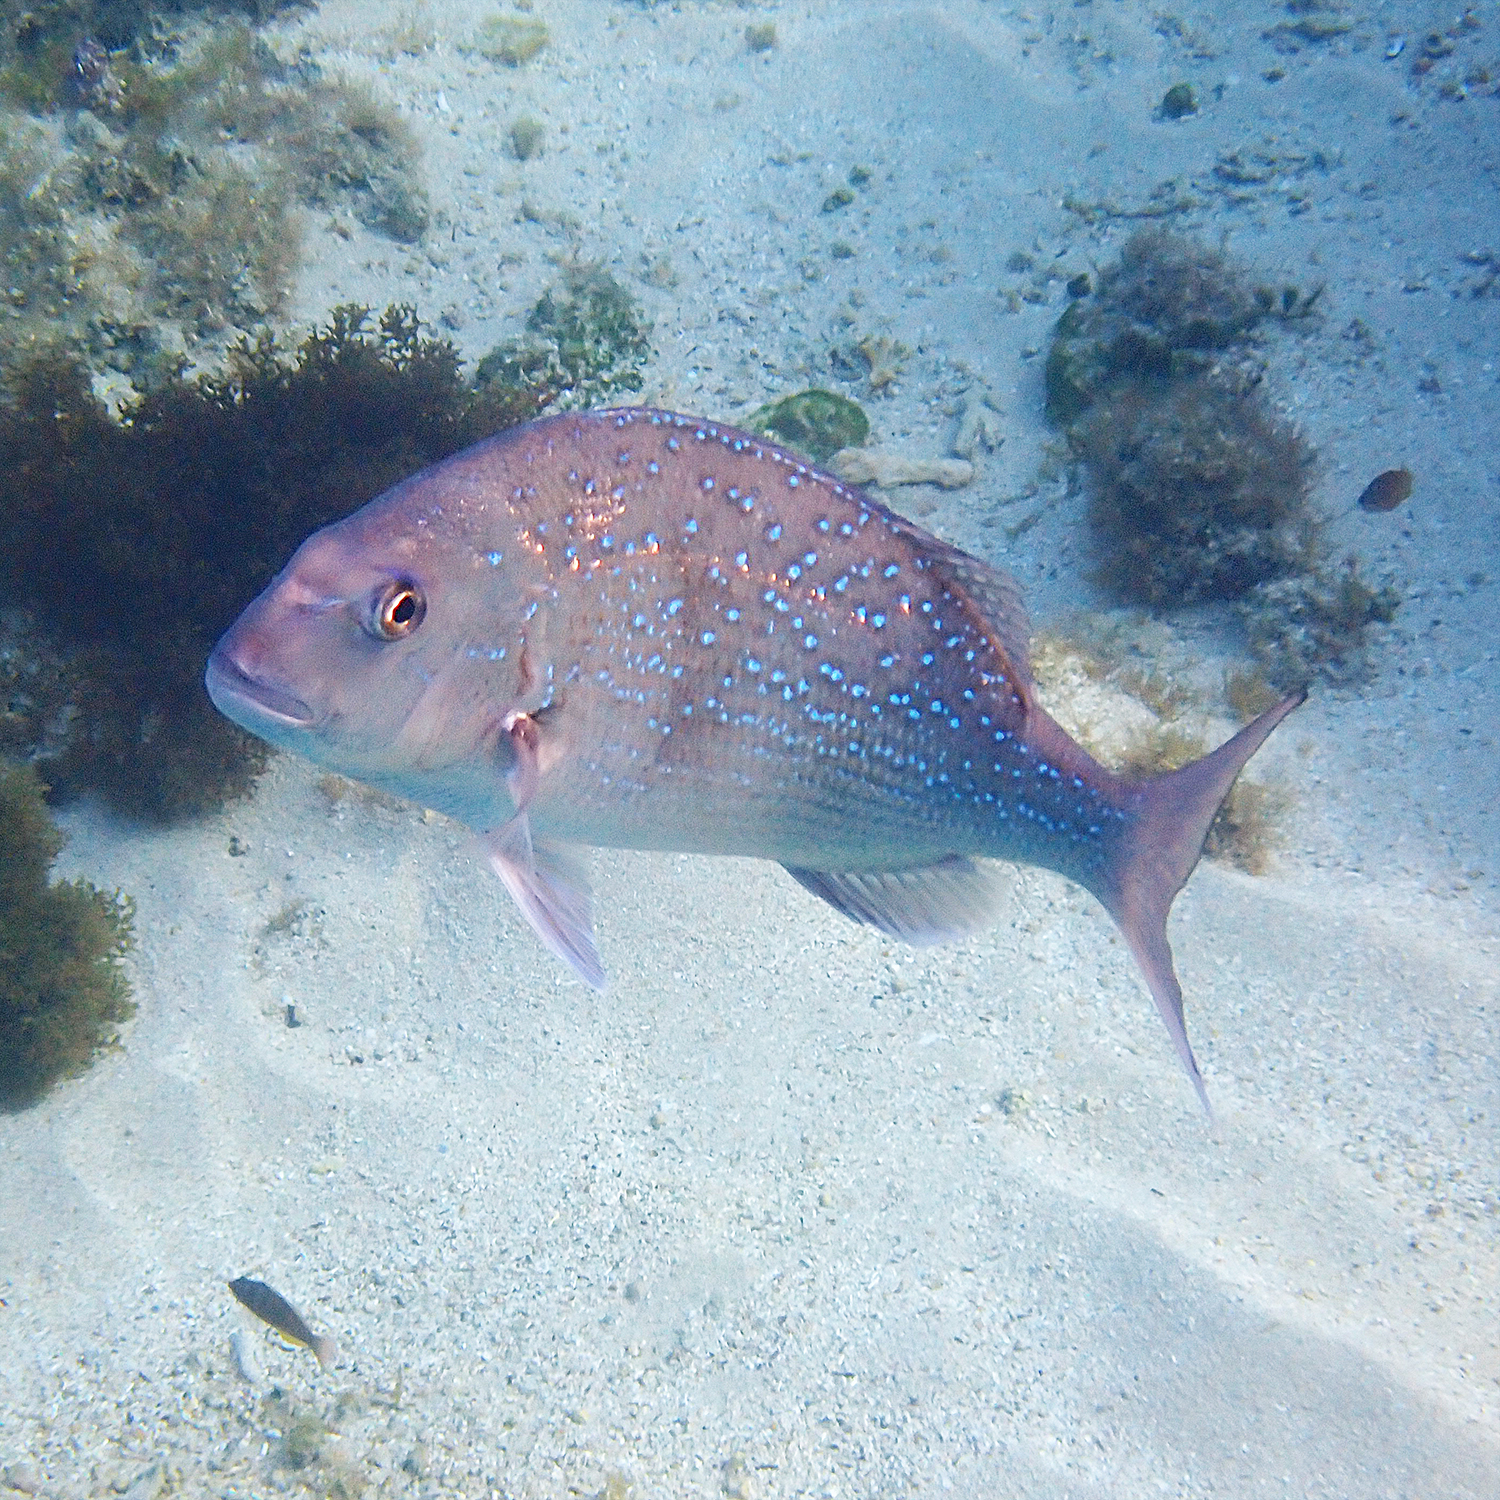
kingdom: Animalia
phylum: Chordata
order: Perciformes
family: Sparidae
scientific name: Sparidae
